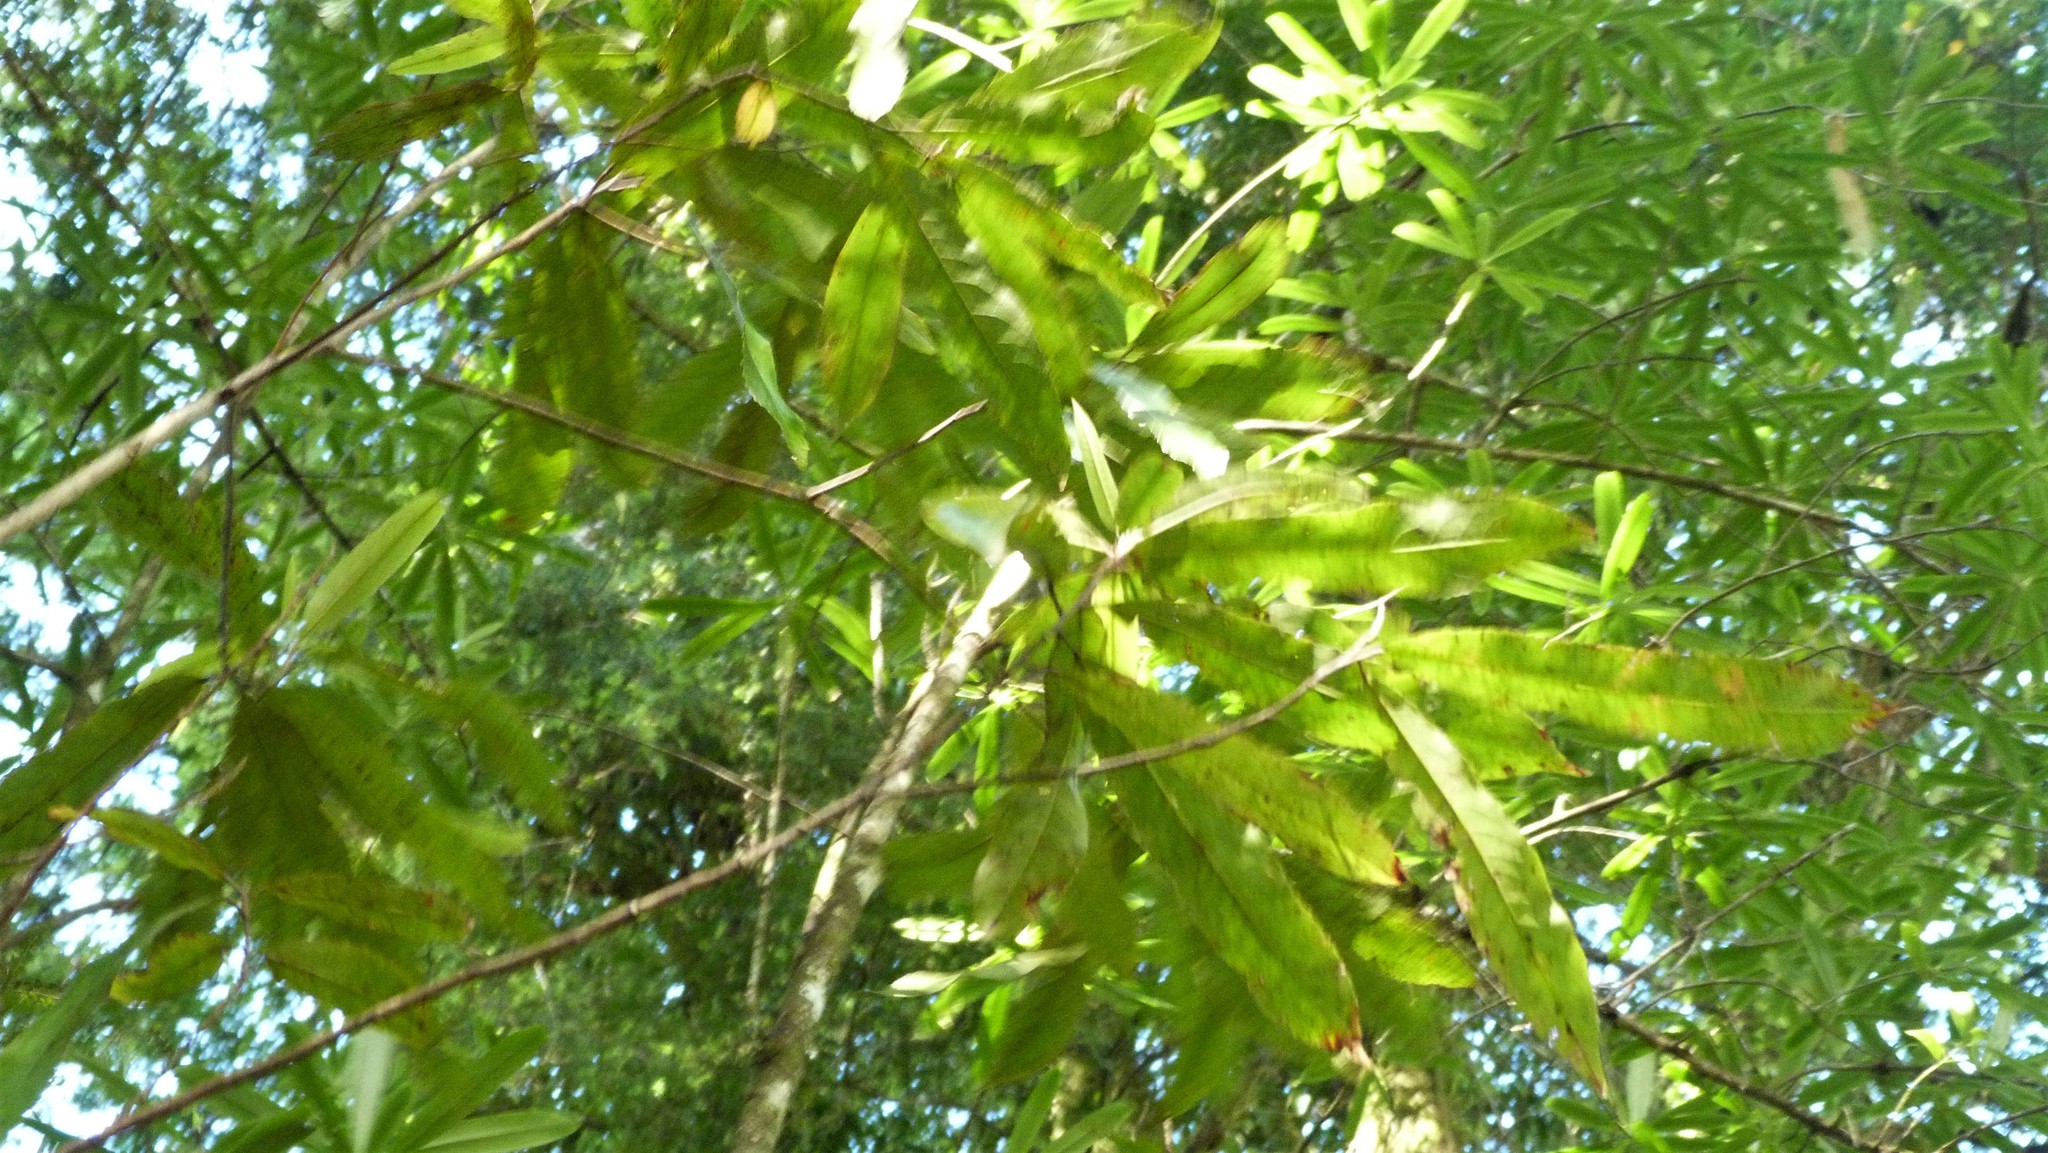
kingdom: Plantae
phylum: Tracheophyta
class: Magnoliopsida
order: Ericales
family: Primulaceae
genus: Myrsine
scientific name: Myrsine salicina
